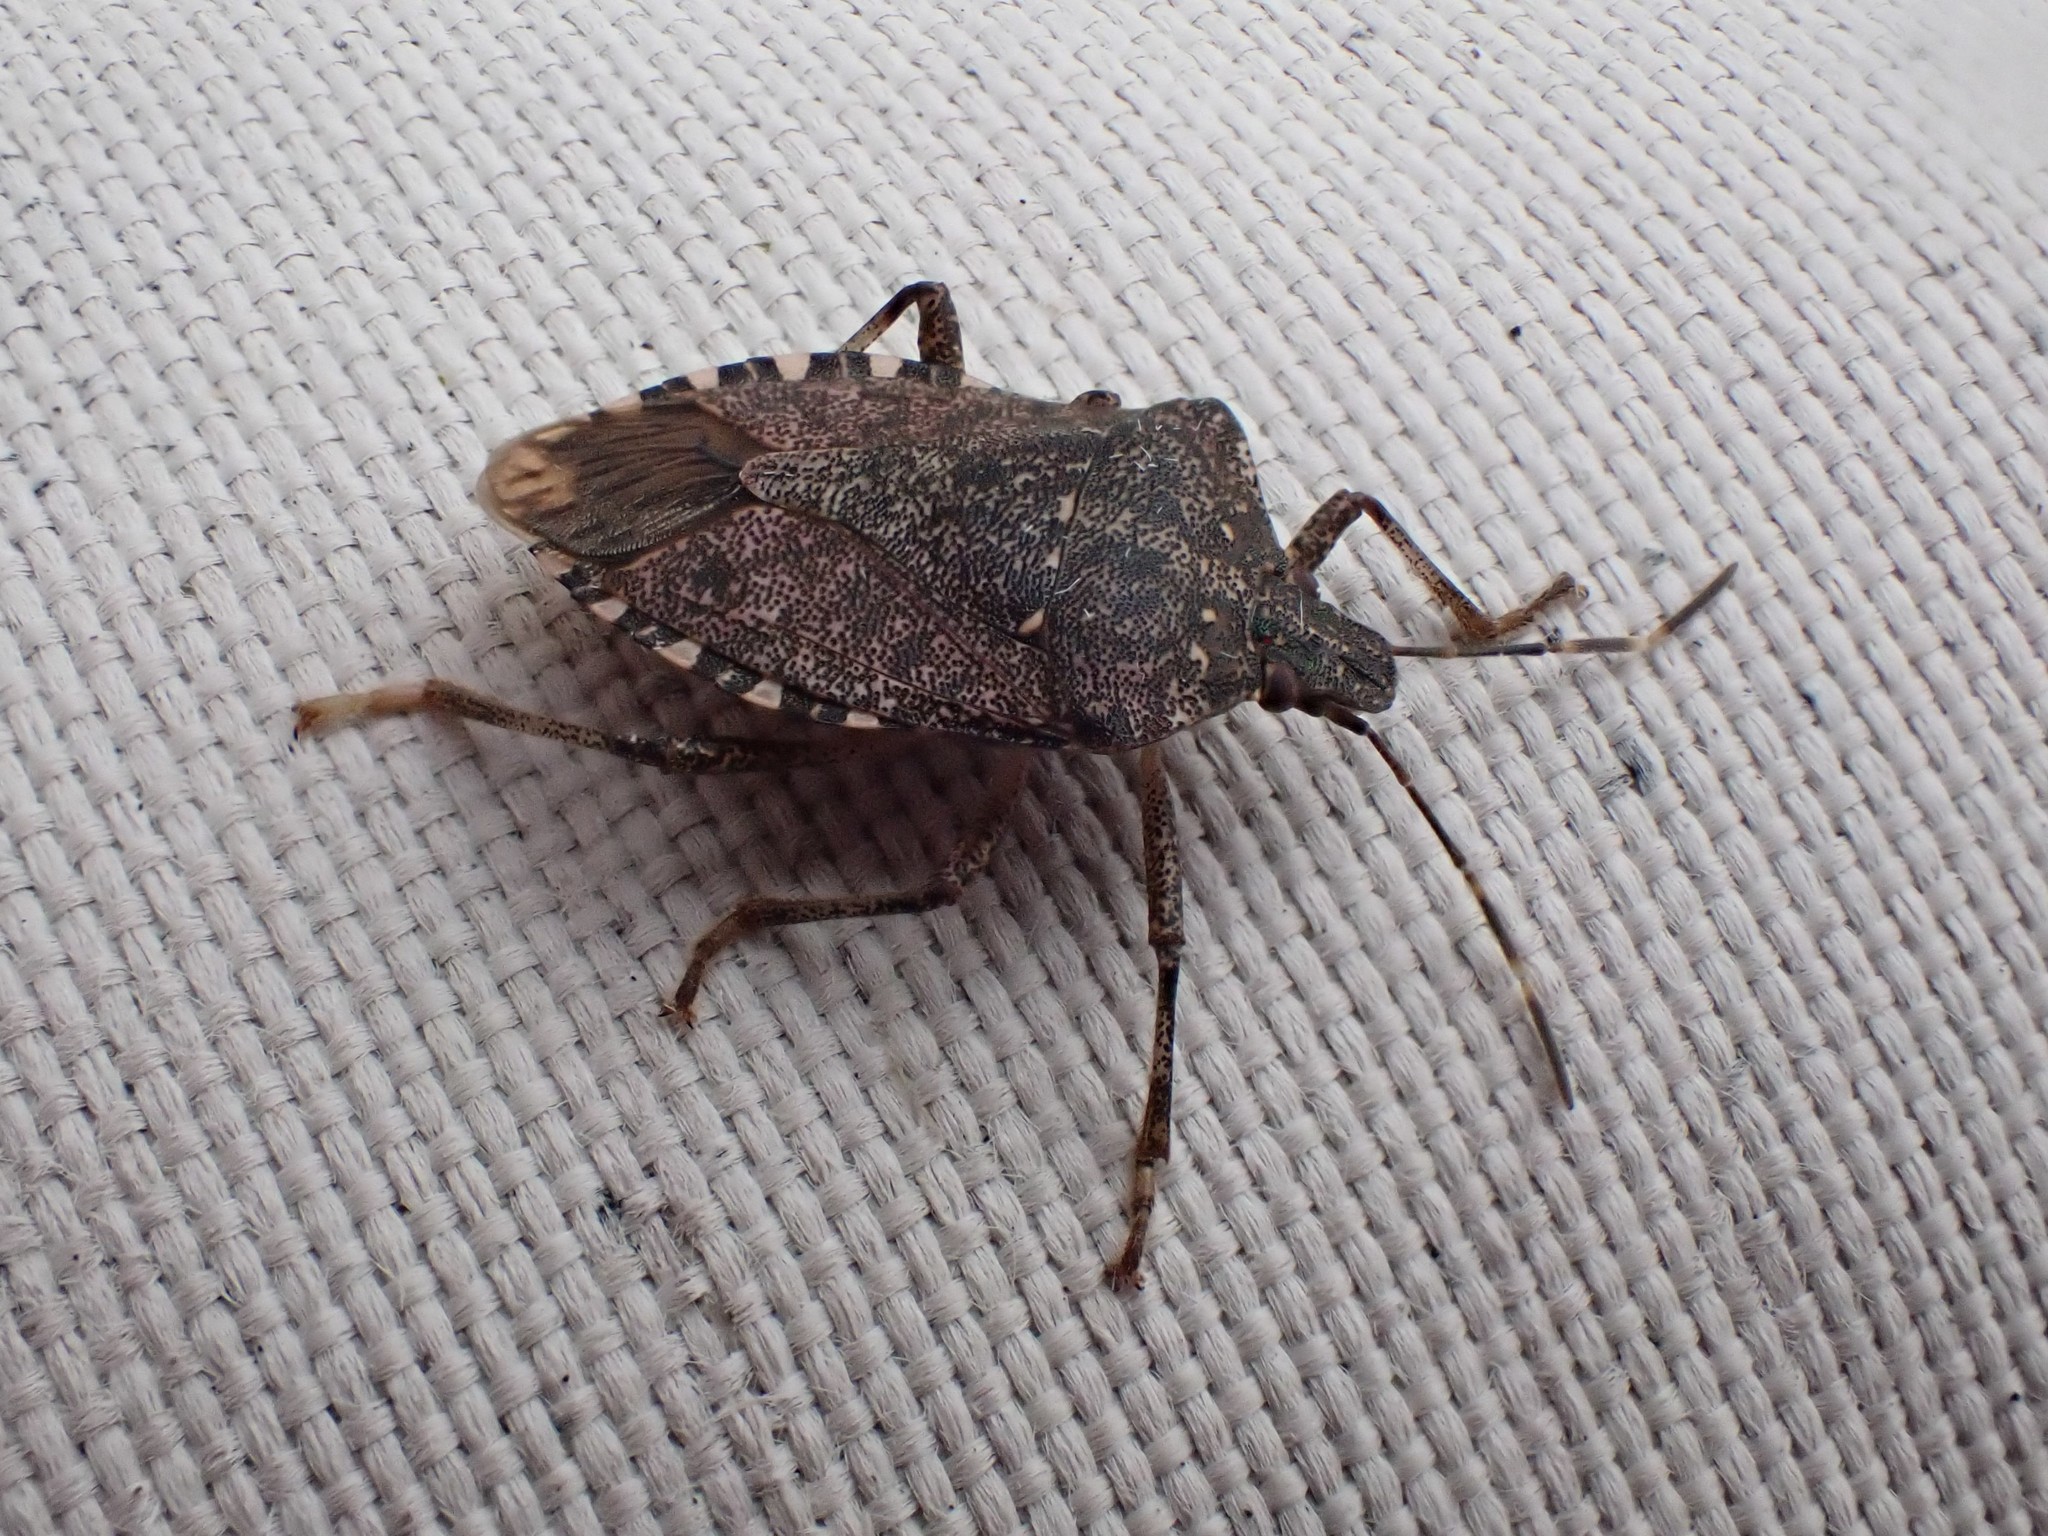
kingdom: Animalia
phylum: Arthropoda
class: Insecta
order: Hemiptera
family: Pentatomidae
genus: Halyomorpha
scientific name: Halyomorpha halys
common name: Brown marmorated stink bug
